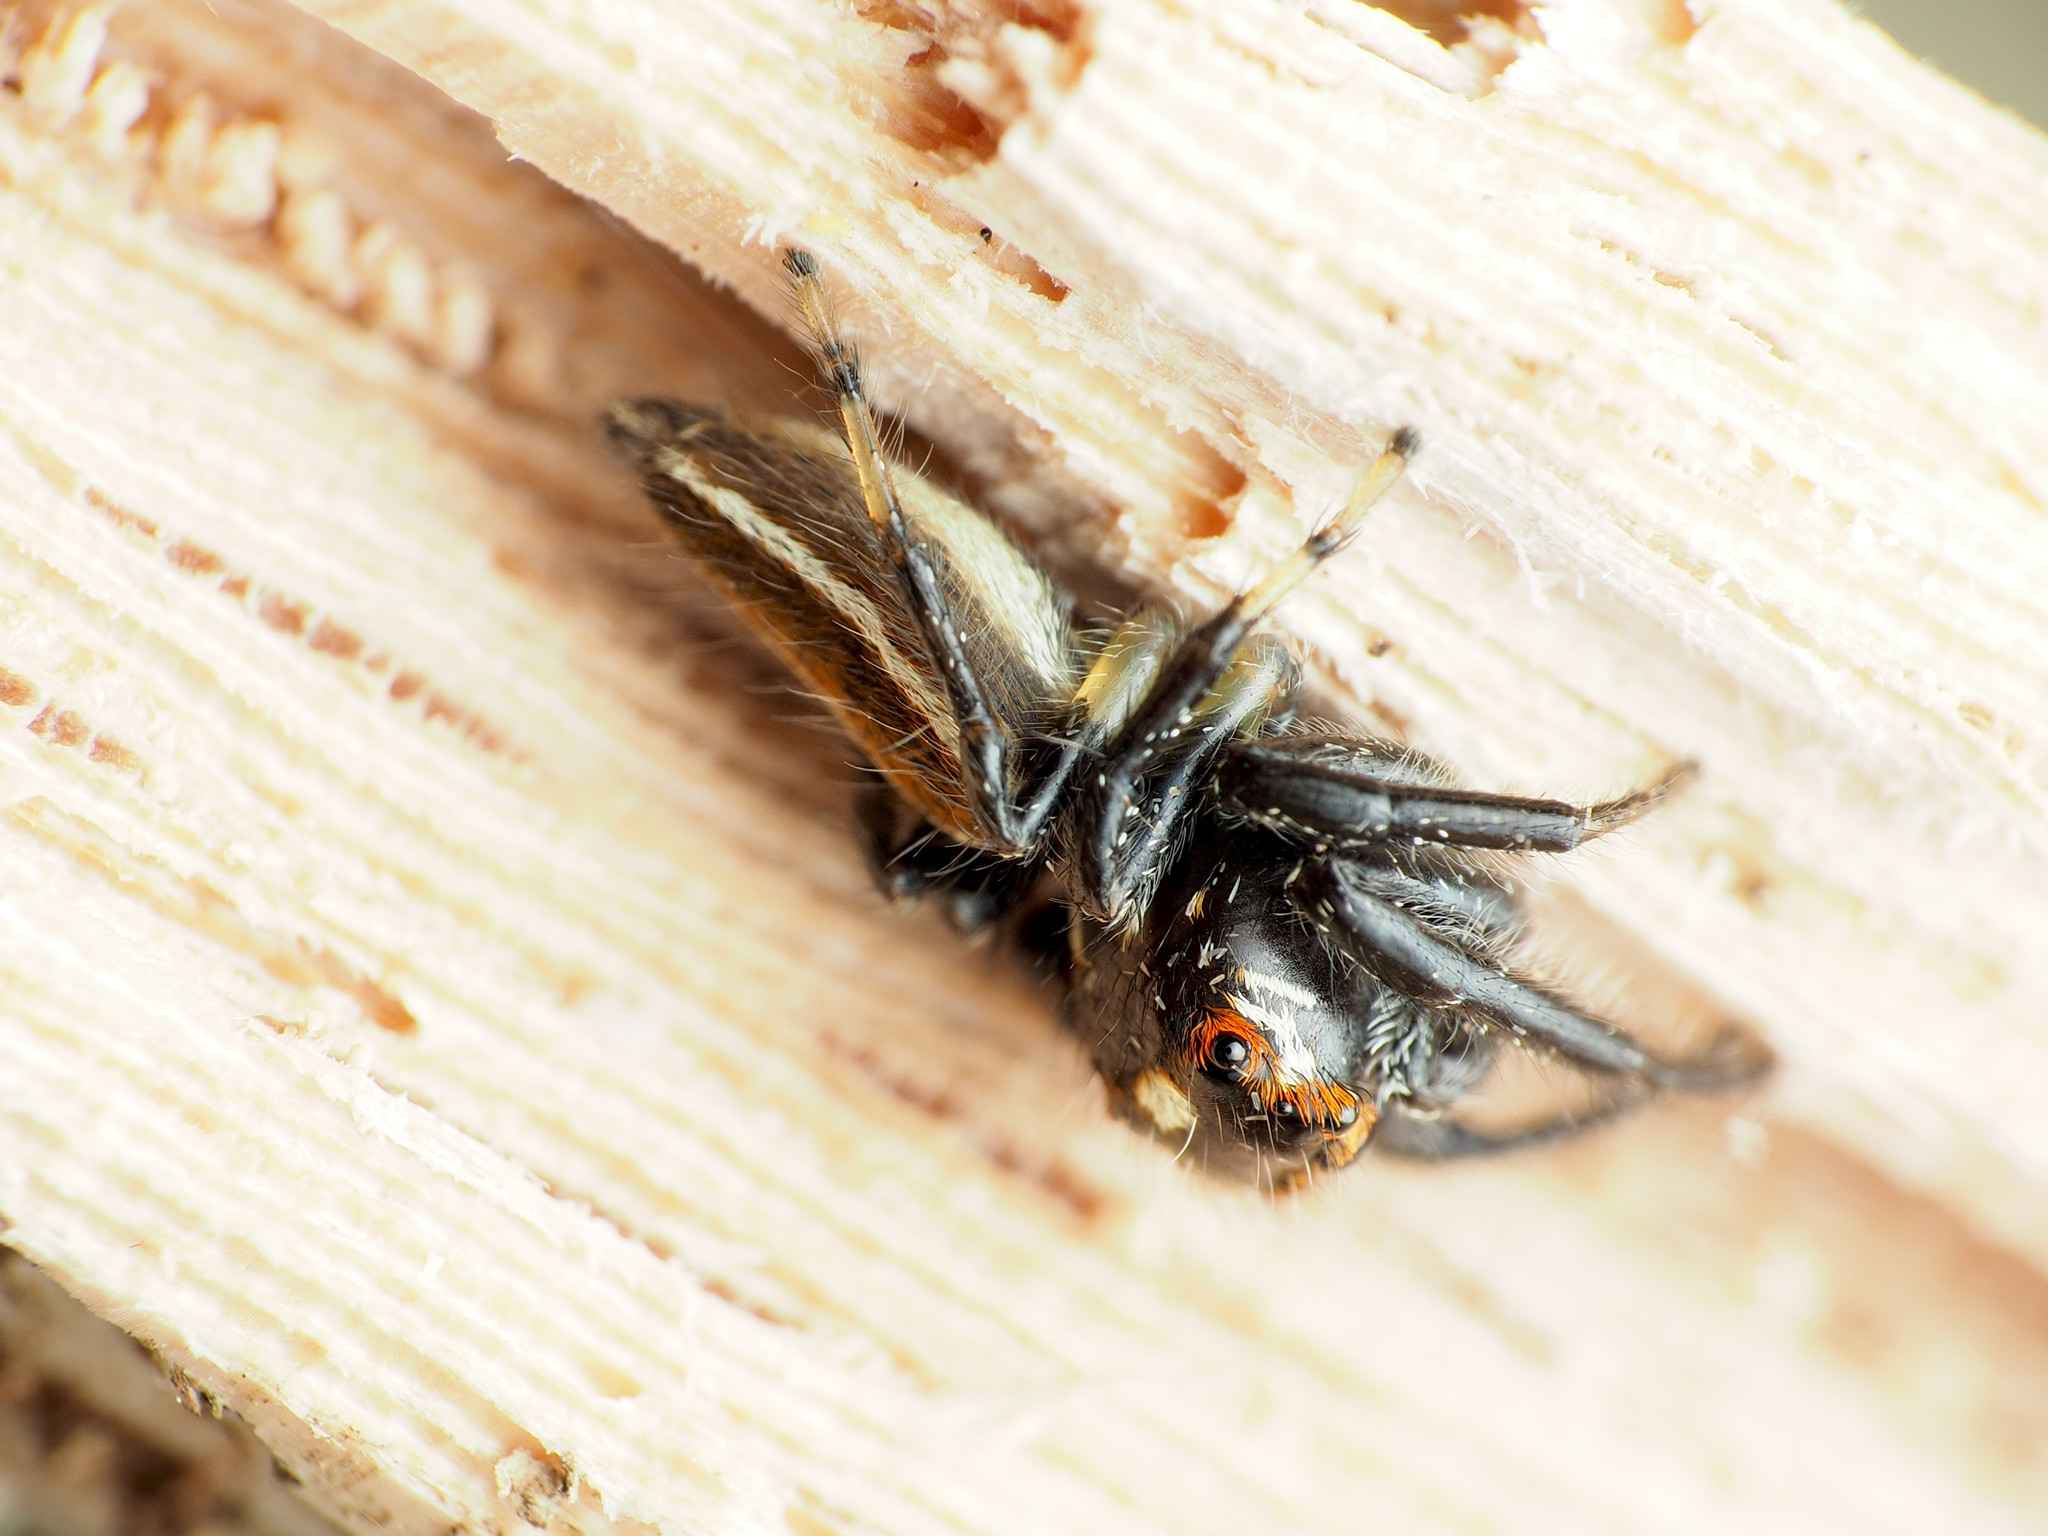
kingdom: Animalia
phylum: Arthropoda
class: Arachnida
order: Araneae
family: Salticidae
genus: Colonus
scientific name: Colonus sylvanus
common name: Jumping spiders
